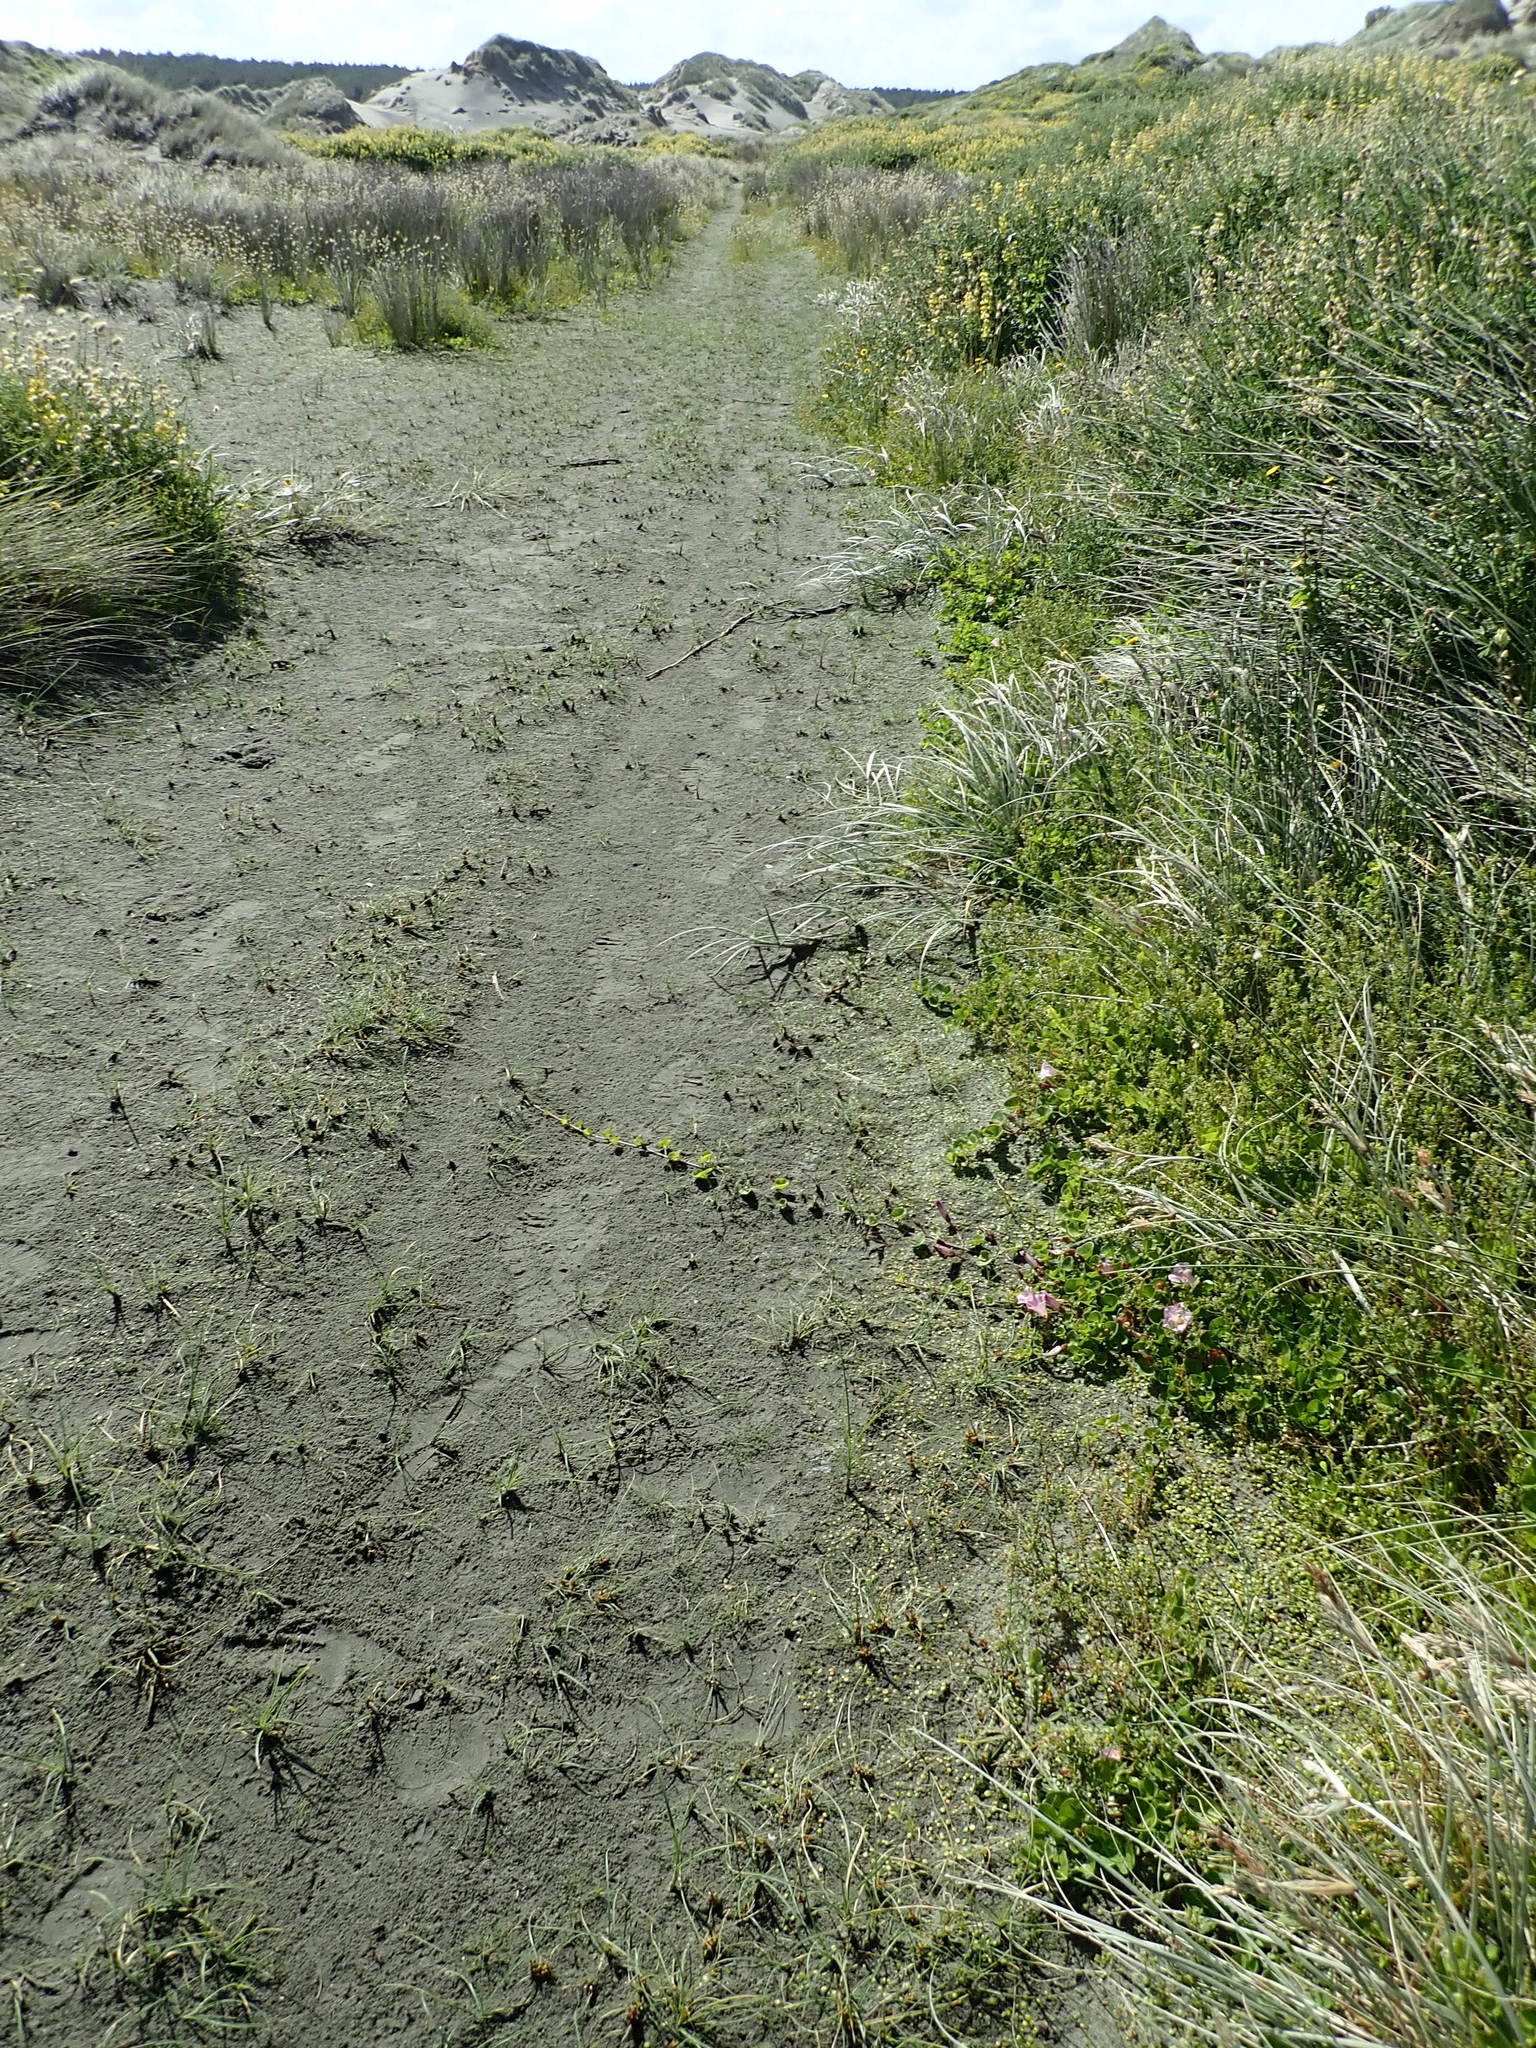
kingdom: Plantae
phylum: Tracheophyta
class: Magnoliopsida
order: Solanales
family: Convolvulaceae
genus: Calystegia
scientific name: Calystegia soldanella
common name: Sea bindweed
